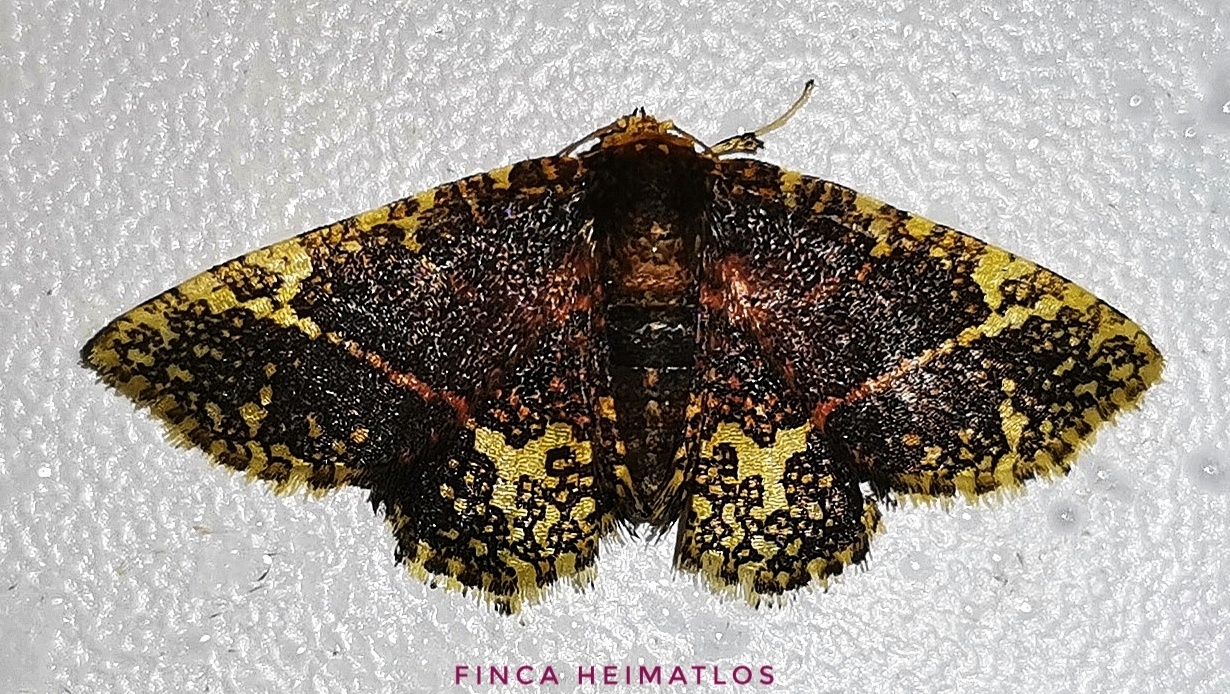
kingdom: Animalia
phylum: Arthropoda
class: Insecta
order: Lepidoptera
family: Thyrididae
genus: Tristina
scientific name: Tristina jucunda
